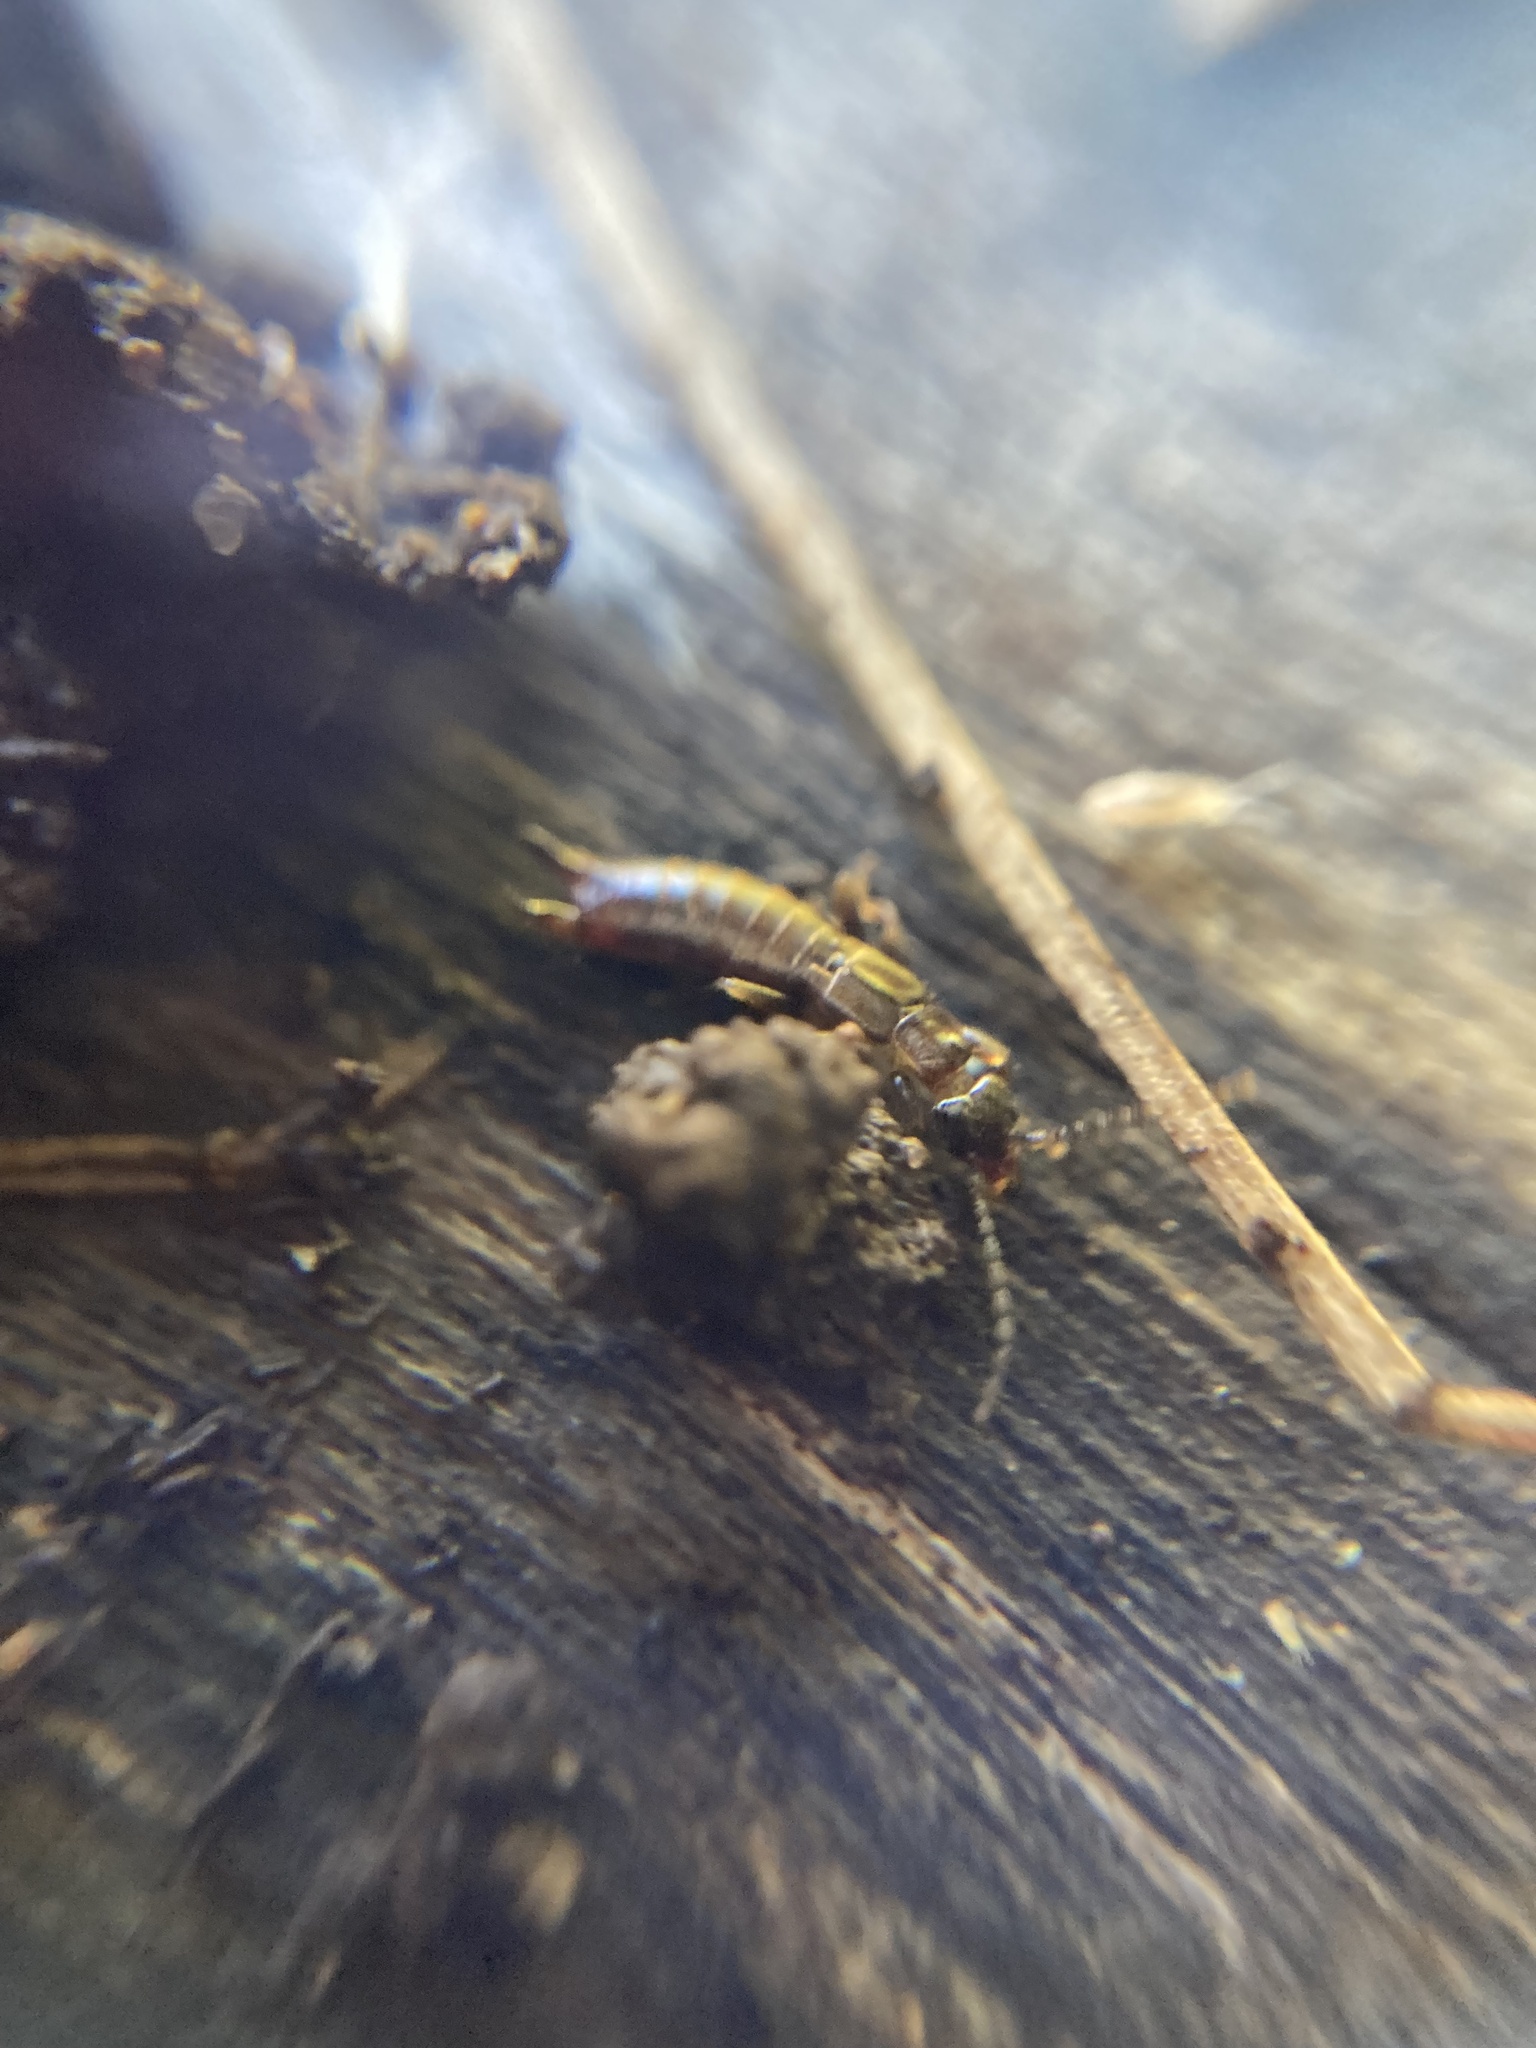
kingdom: Animalia
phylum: Arthropoda
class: Insecta
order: Dermaptera
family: Spongiphoridae
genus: Spirolabia
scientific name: Spirolabia kermadecensis
